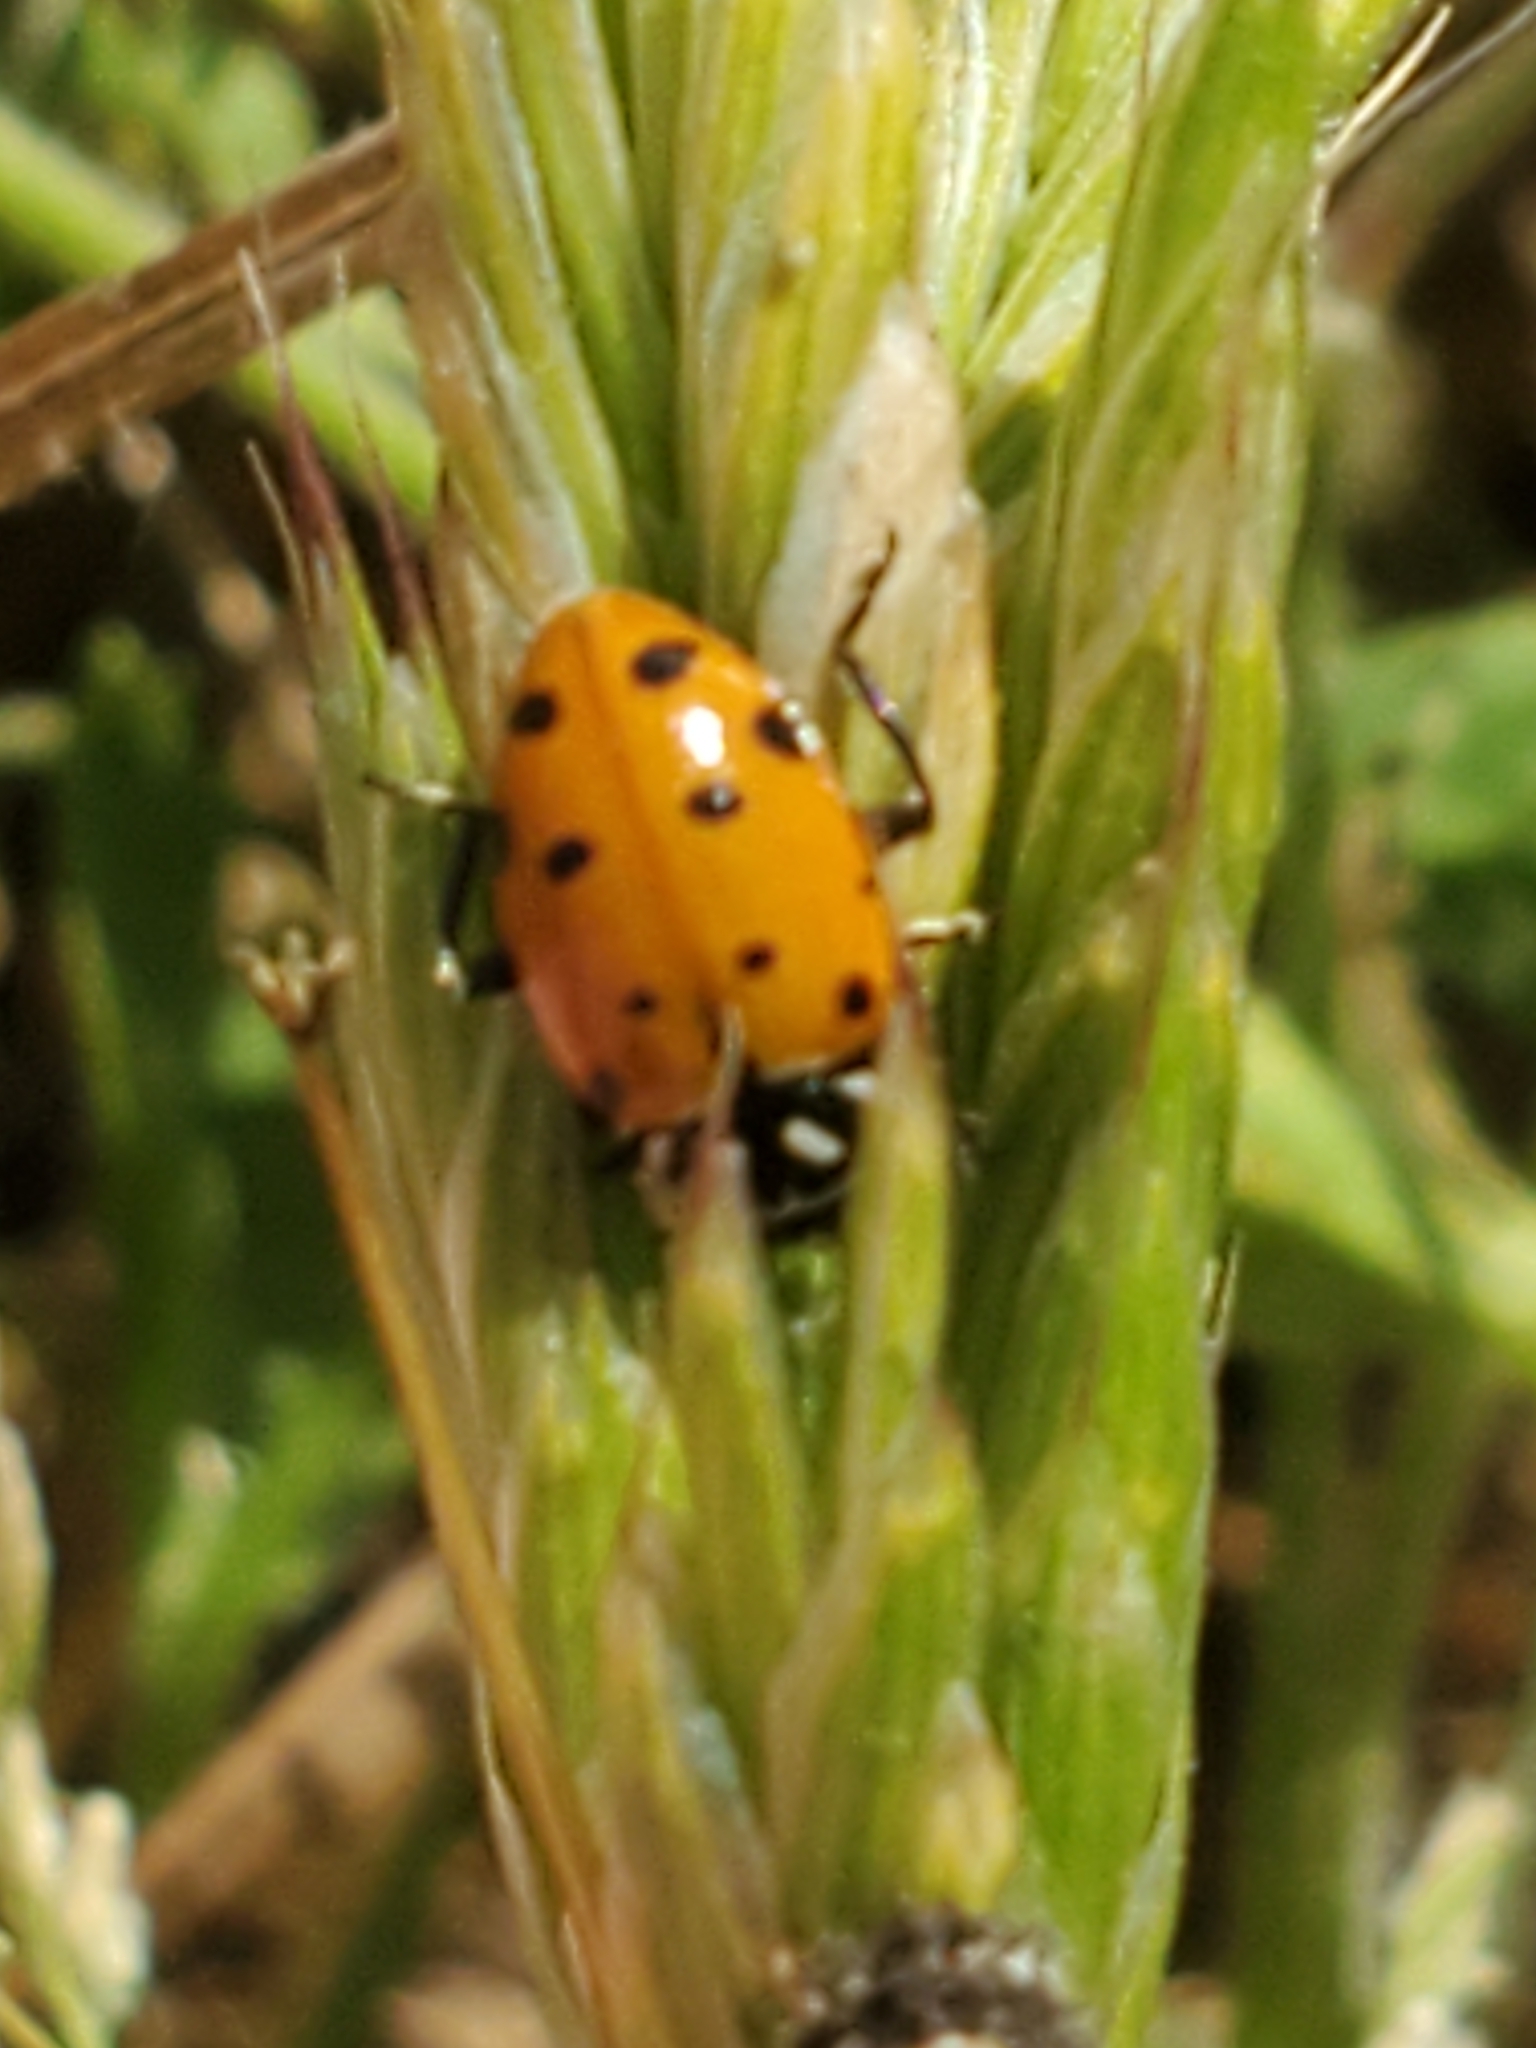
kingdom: Animalia
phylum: Arthropoda
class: Insecta
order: Coleoptera
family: Coccinellidae
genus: Hippodamia
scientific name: Hippodamia convergens
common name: Convergent lady beetle
